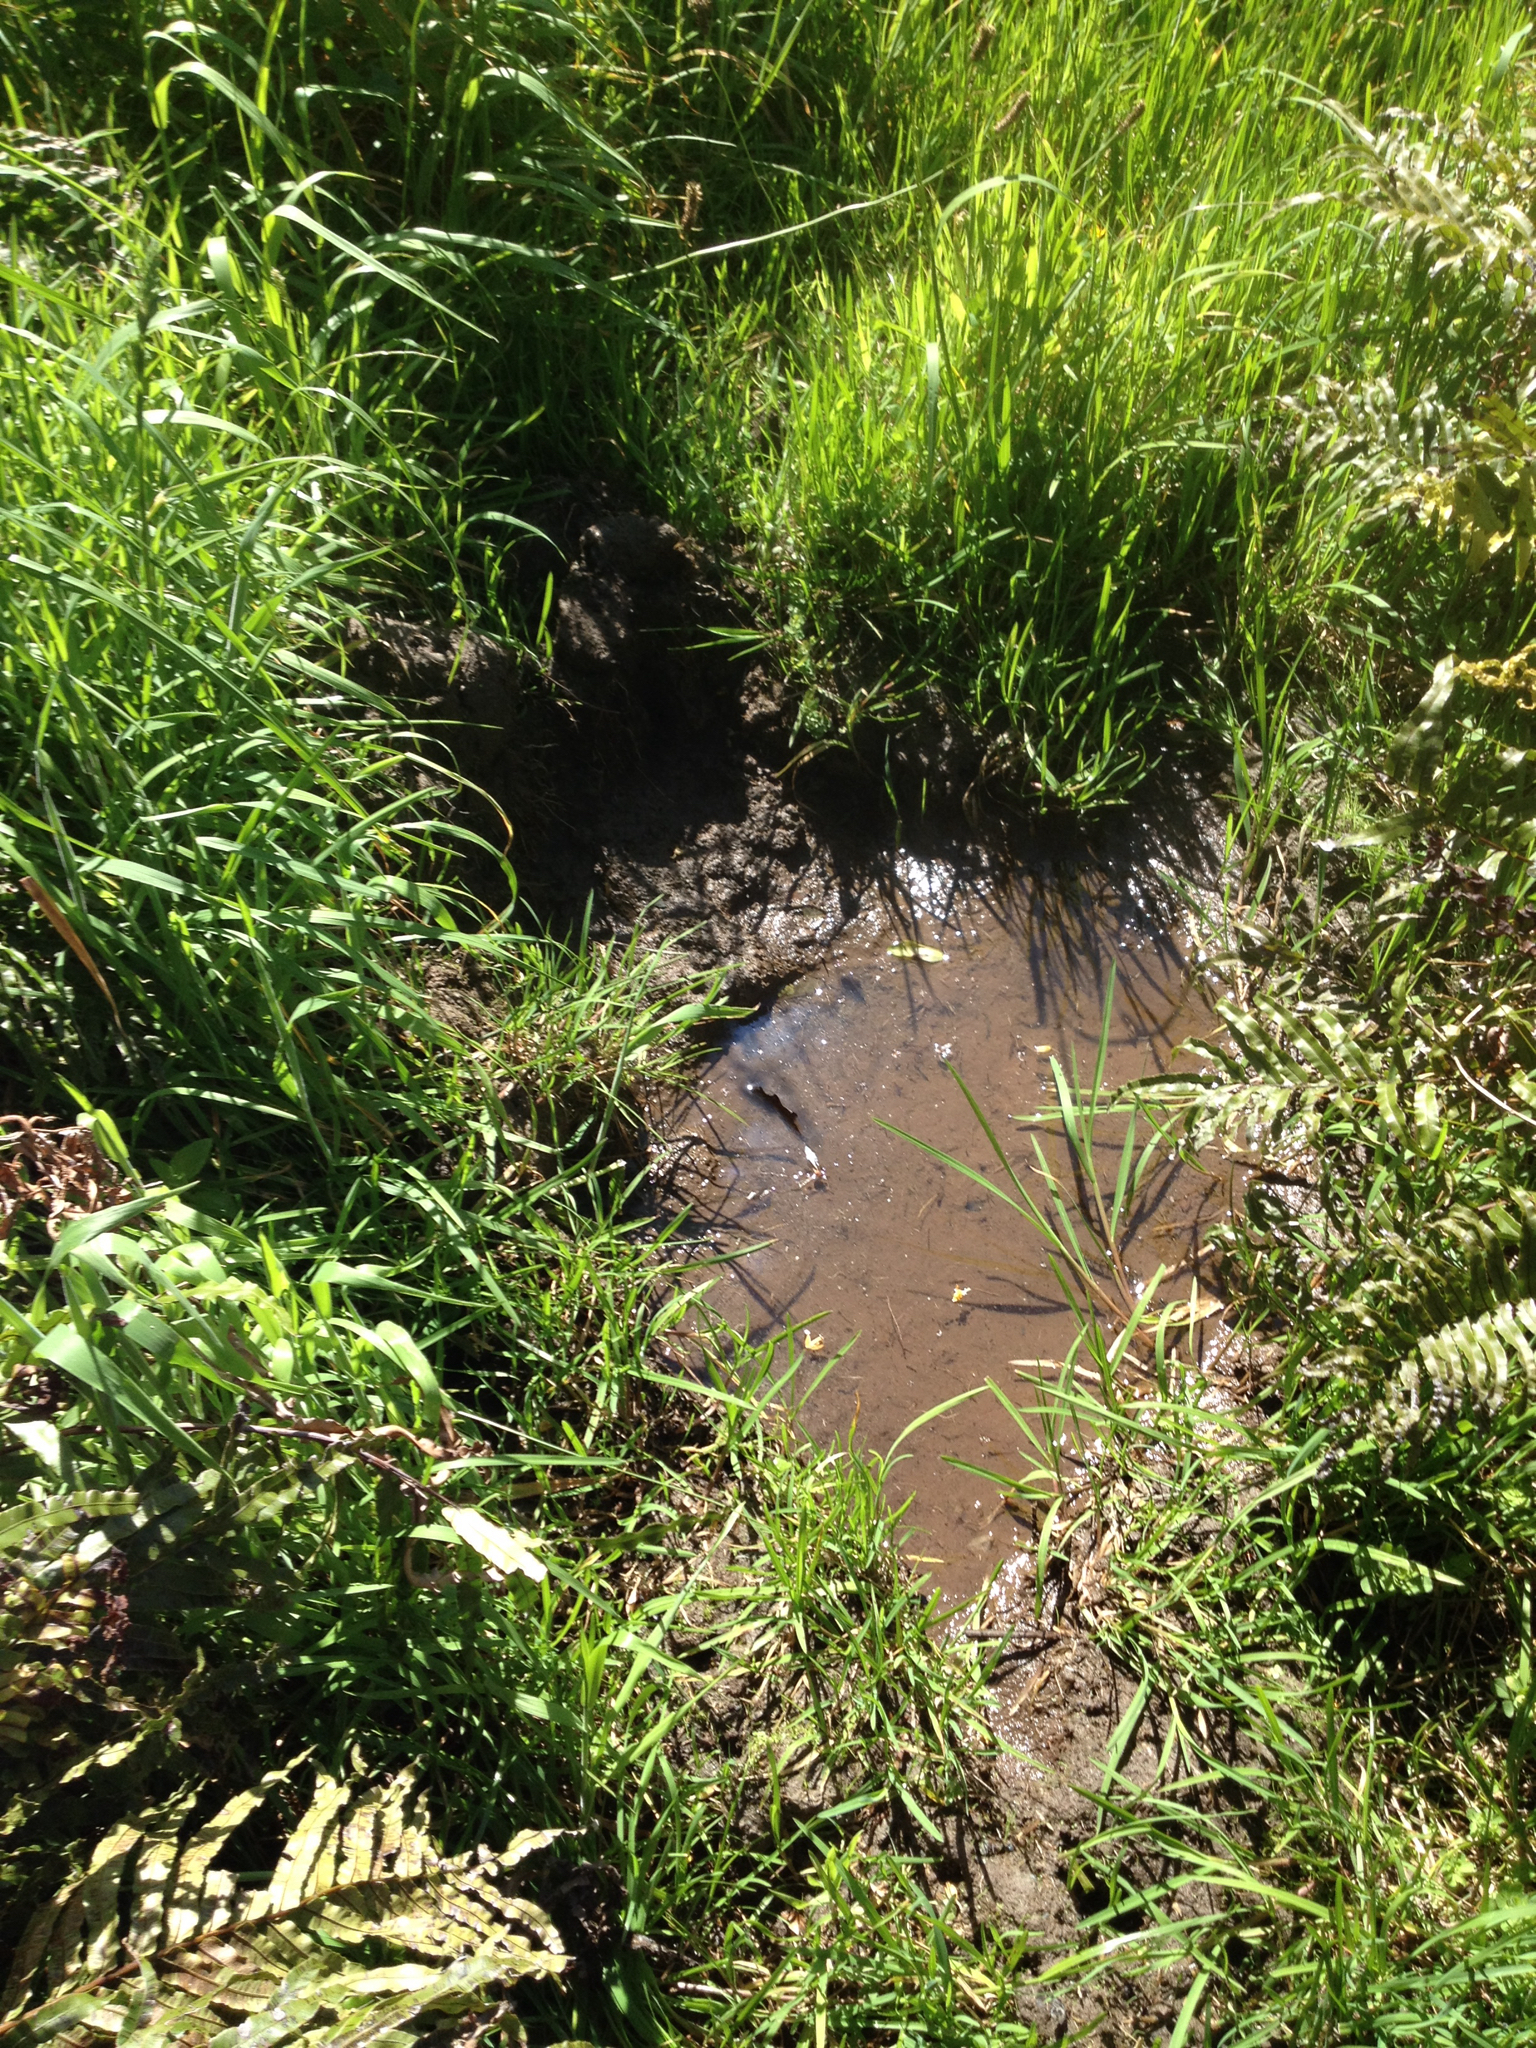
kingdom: Animalia
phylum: Chordata
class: Mammalia
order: Artiodactyla
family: Suidae
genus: Sus
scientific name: Sus scrofa
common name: Wild boar
